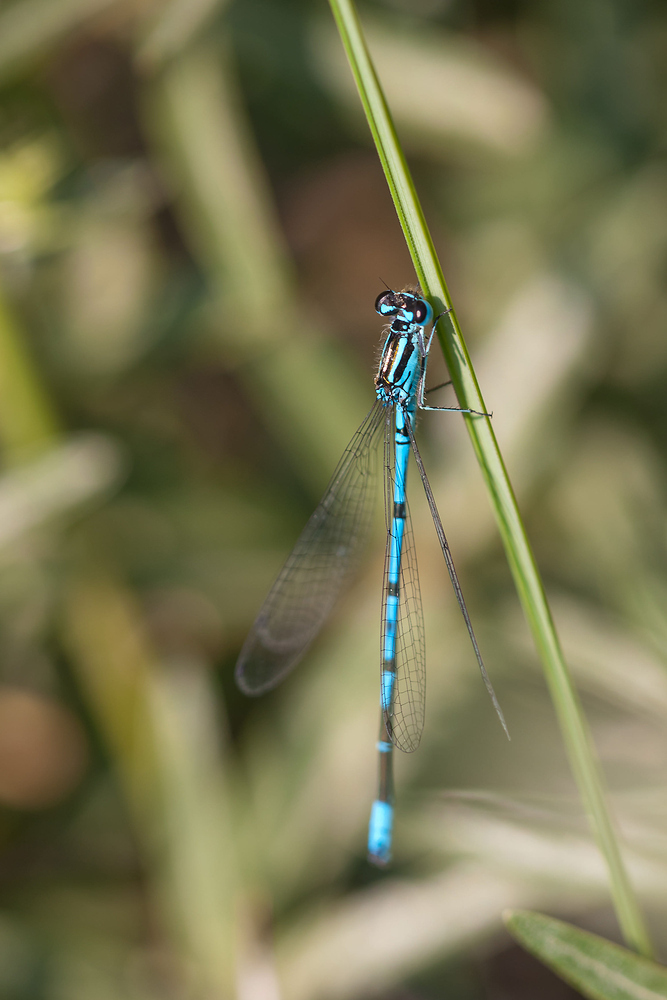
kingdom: Animalia
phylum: Arthropoda
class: Insecta
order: Odonata
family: Coenagrionidae
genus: Coenagrion
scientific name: Coenagrion puella
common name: Azure damselfly
